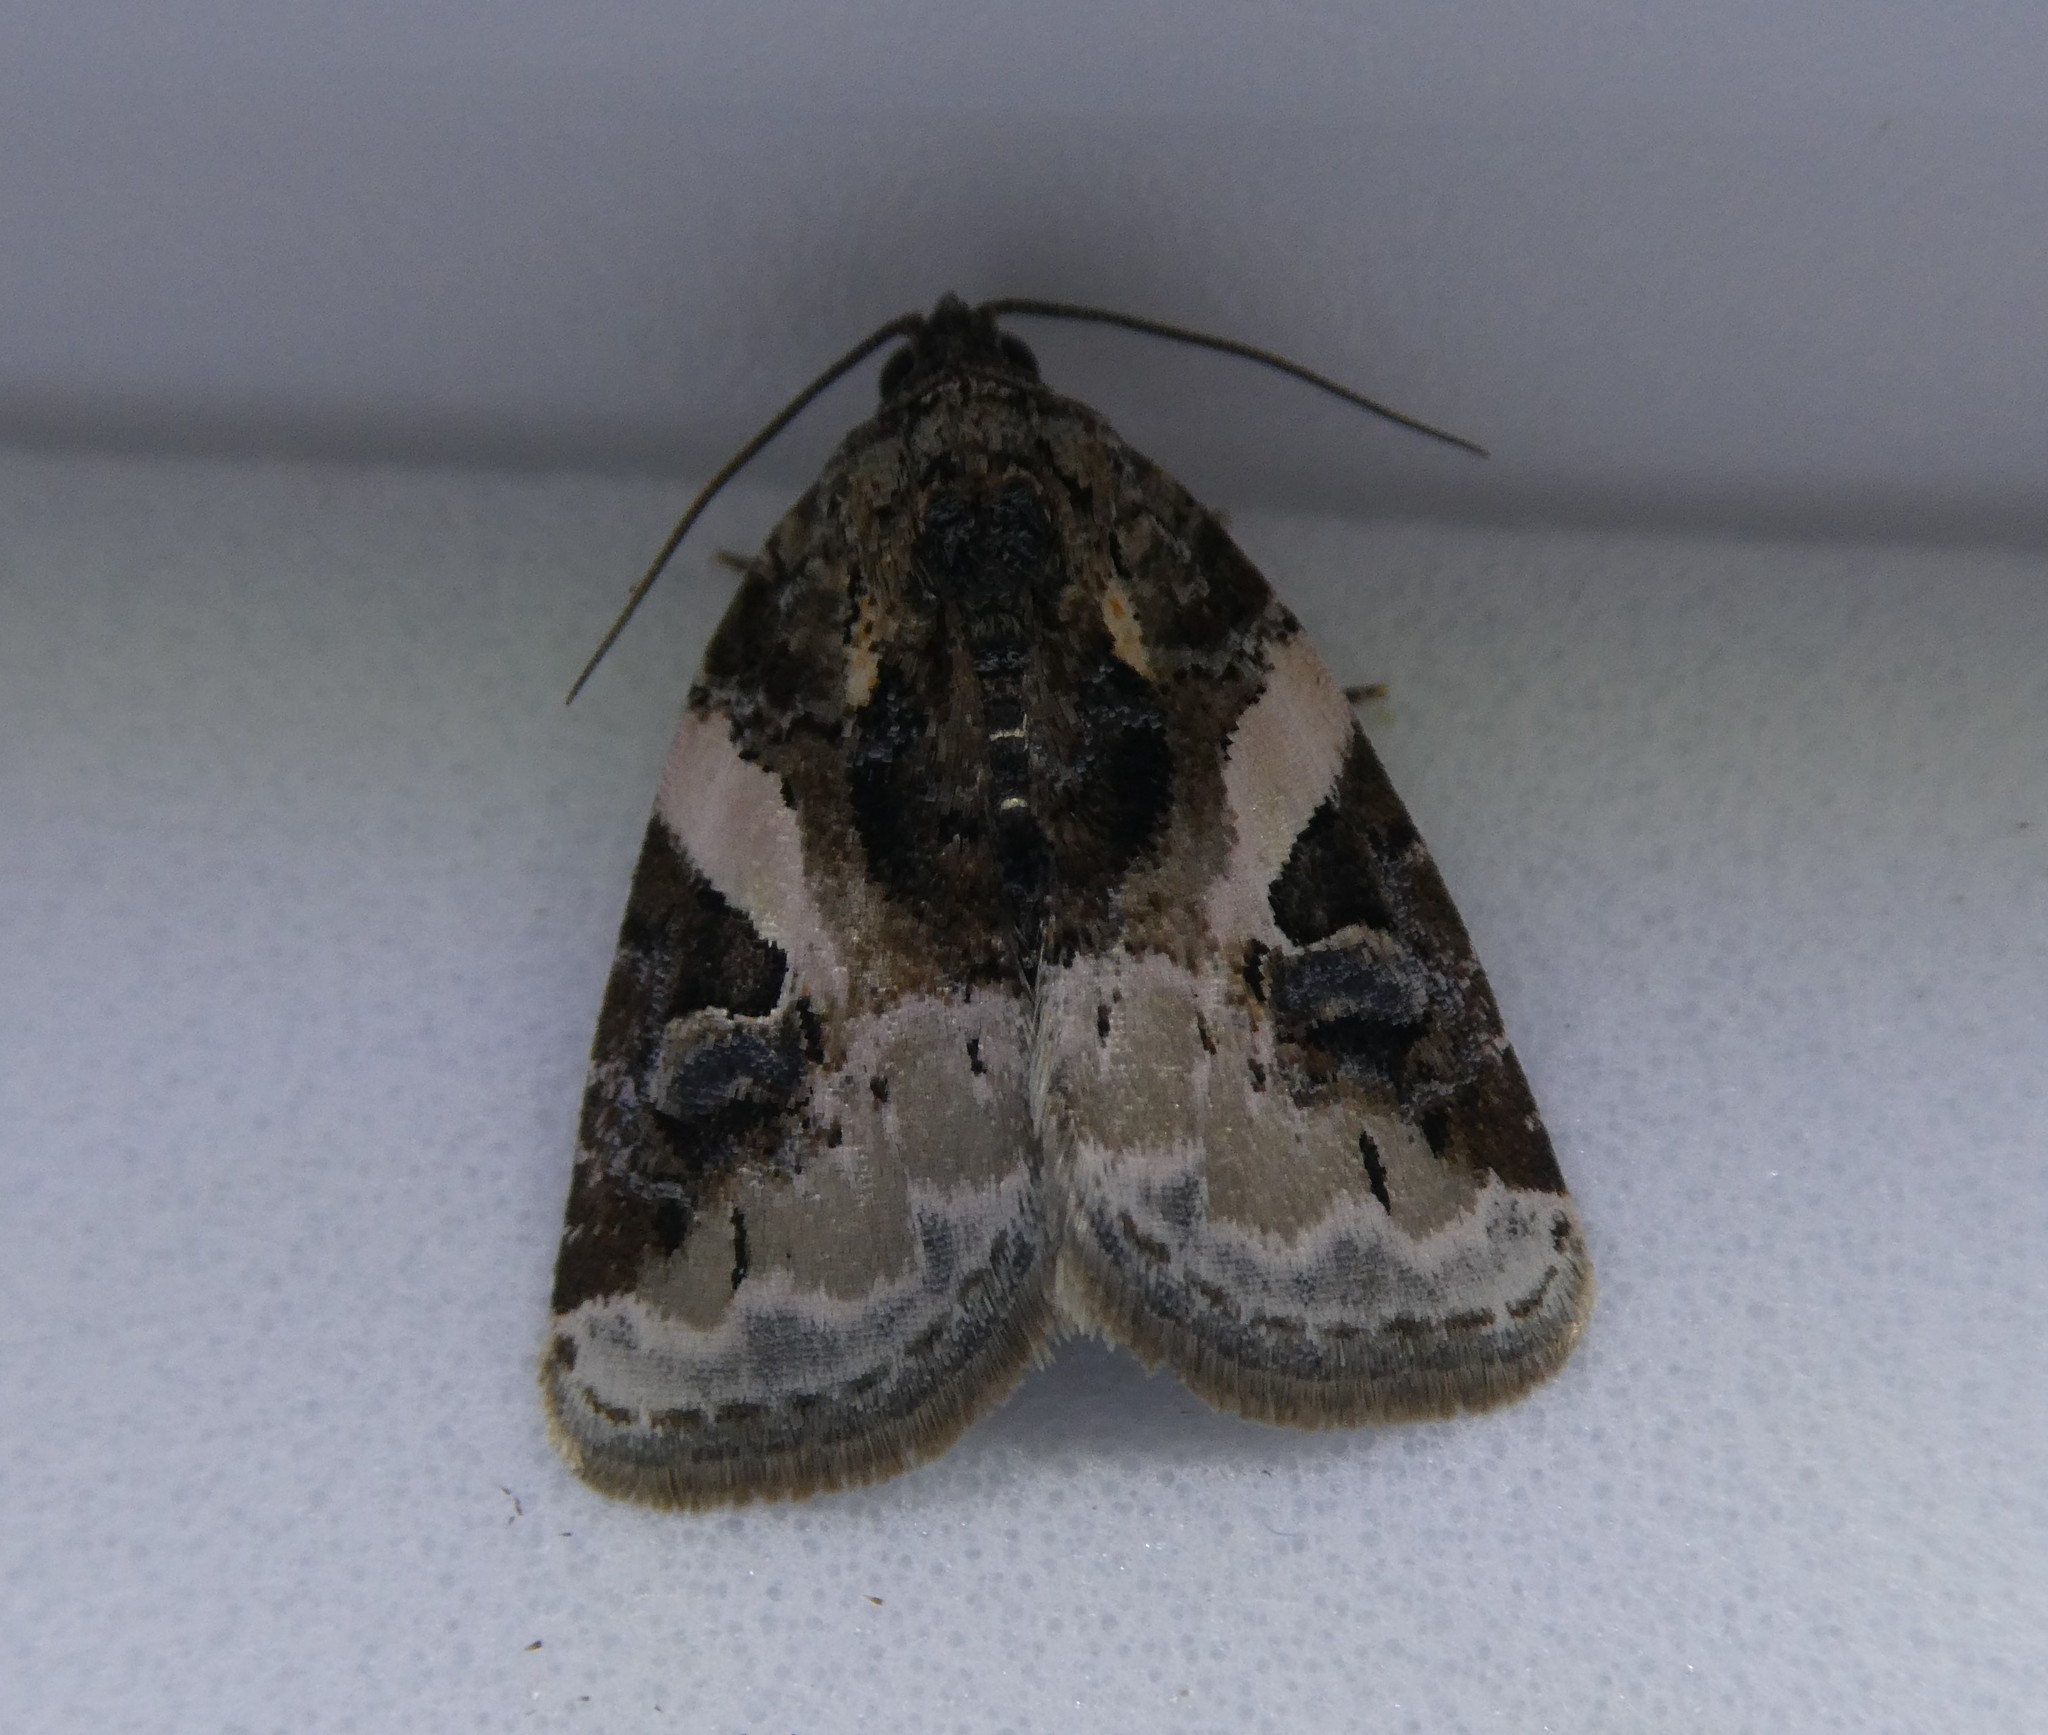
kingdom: Animalia
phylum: Arthropoda
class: Insecta
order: Lepidoptera
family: Noctuidae
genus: Pseudeustrotia
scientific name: Pseudeustrotia carneola
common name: Pink-barred lithacodia moth
